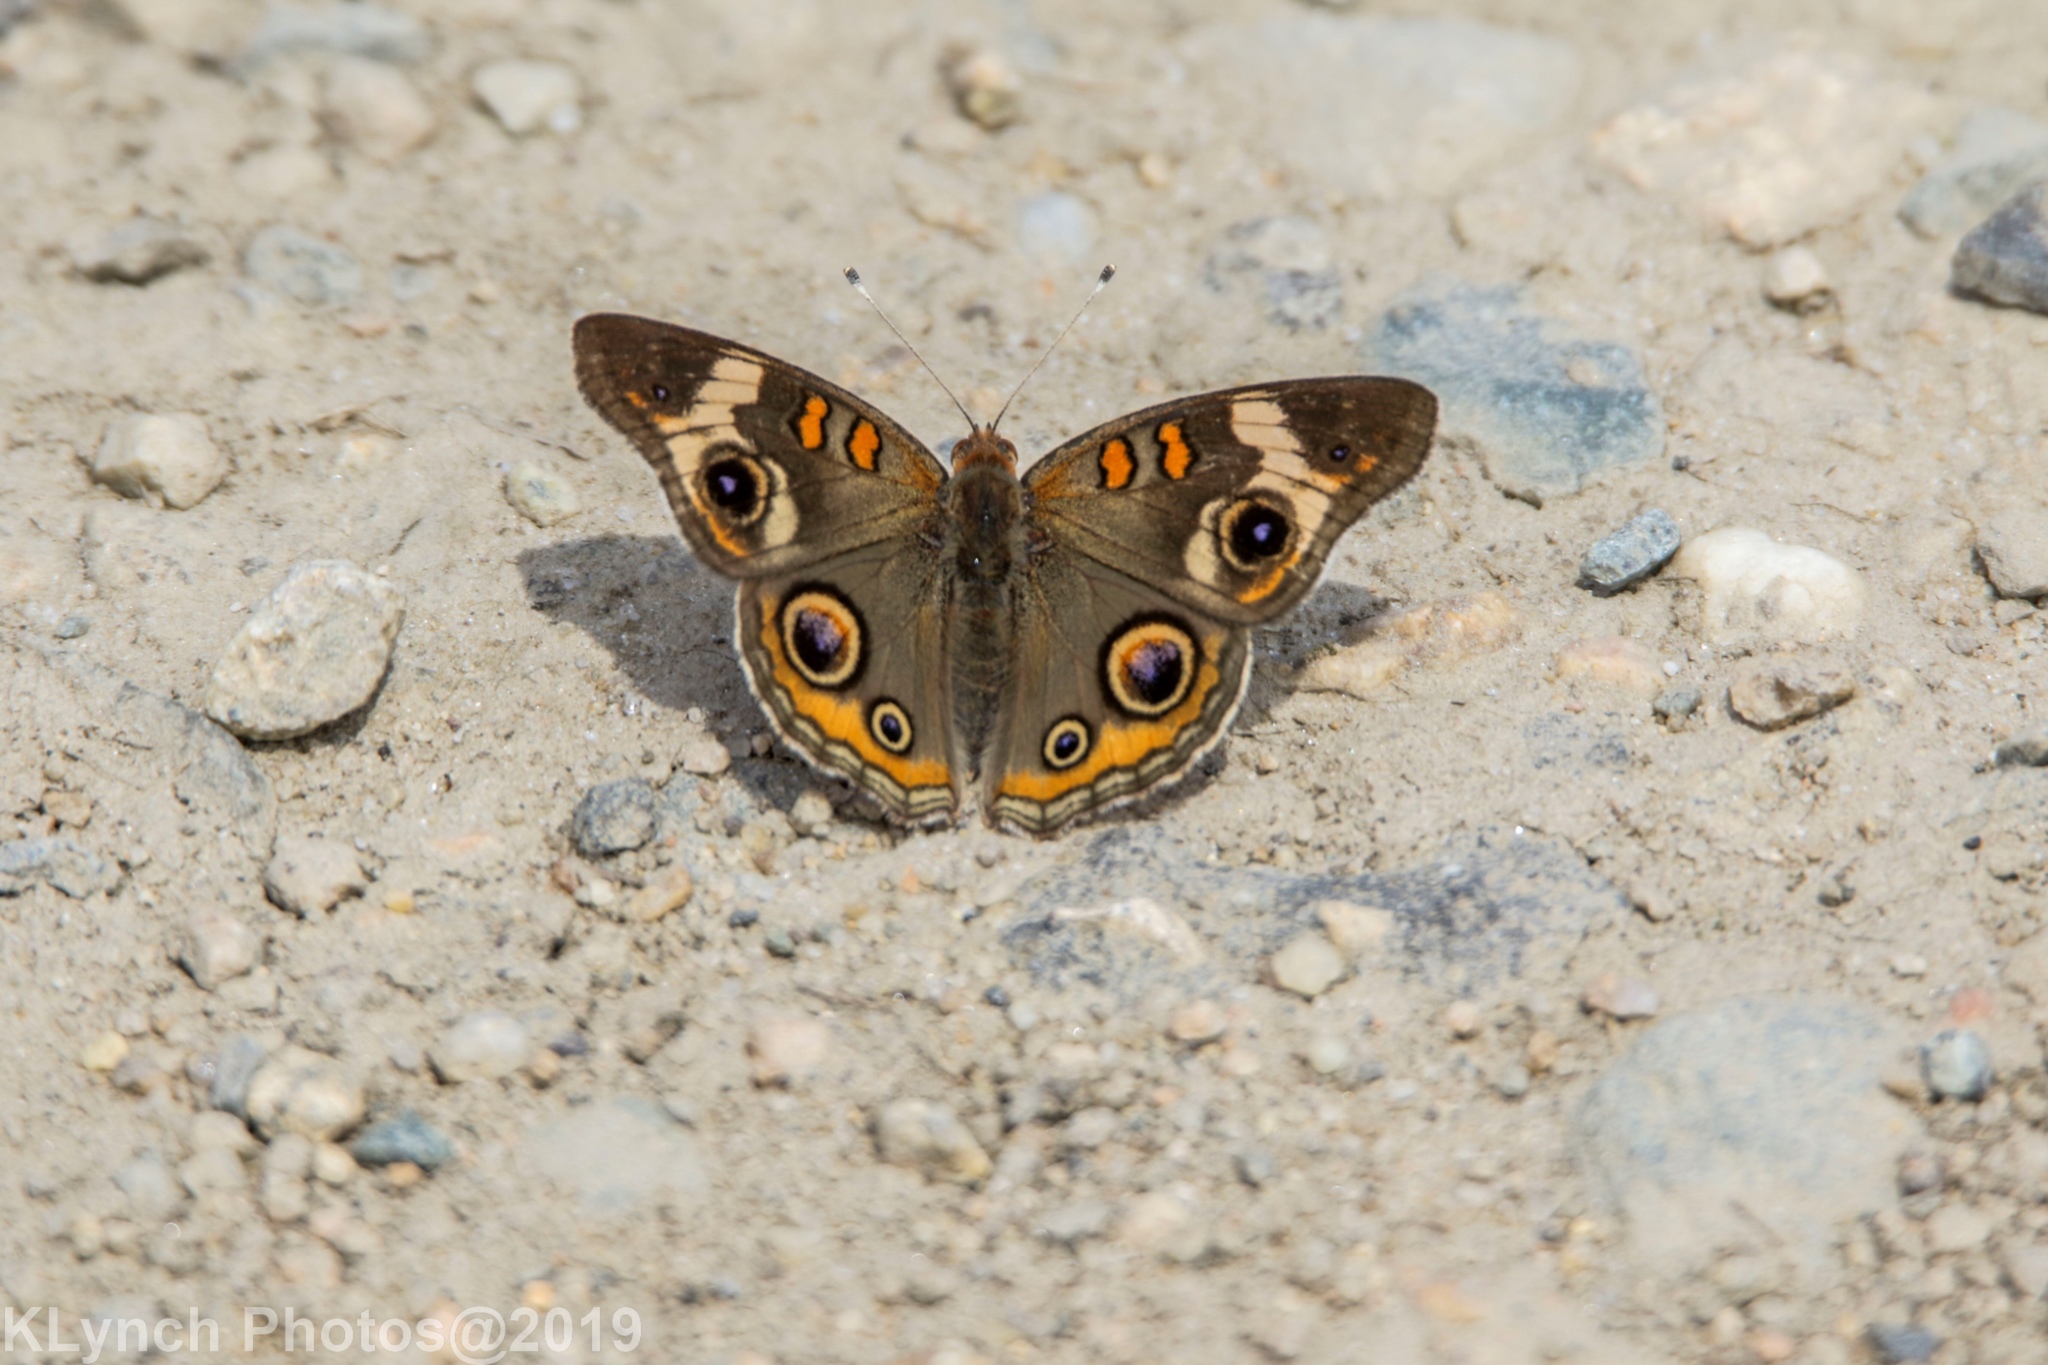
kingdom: Animalia
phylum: Arthropoda
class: Insecta
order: Lepidoptera
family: Nymphalidae
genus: Junonia
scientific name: Junonia coenia
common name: Common buckeye
